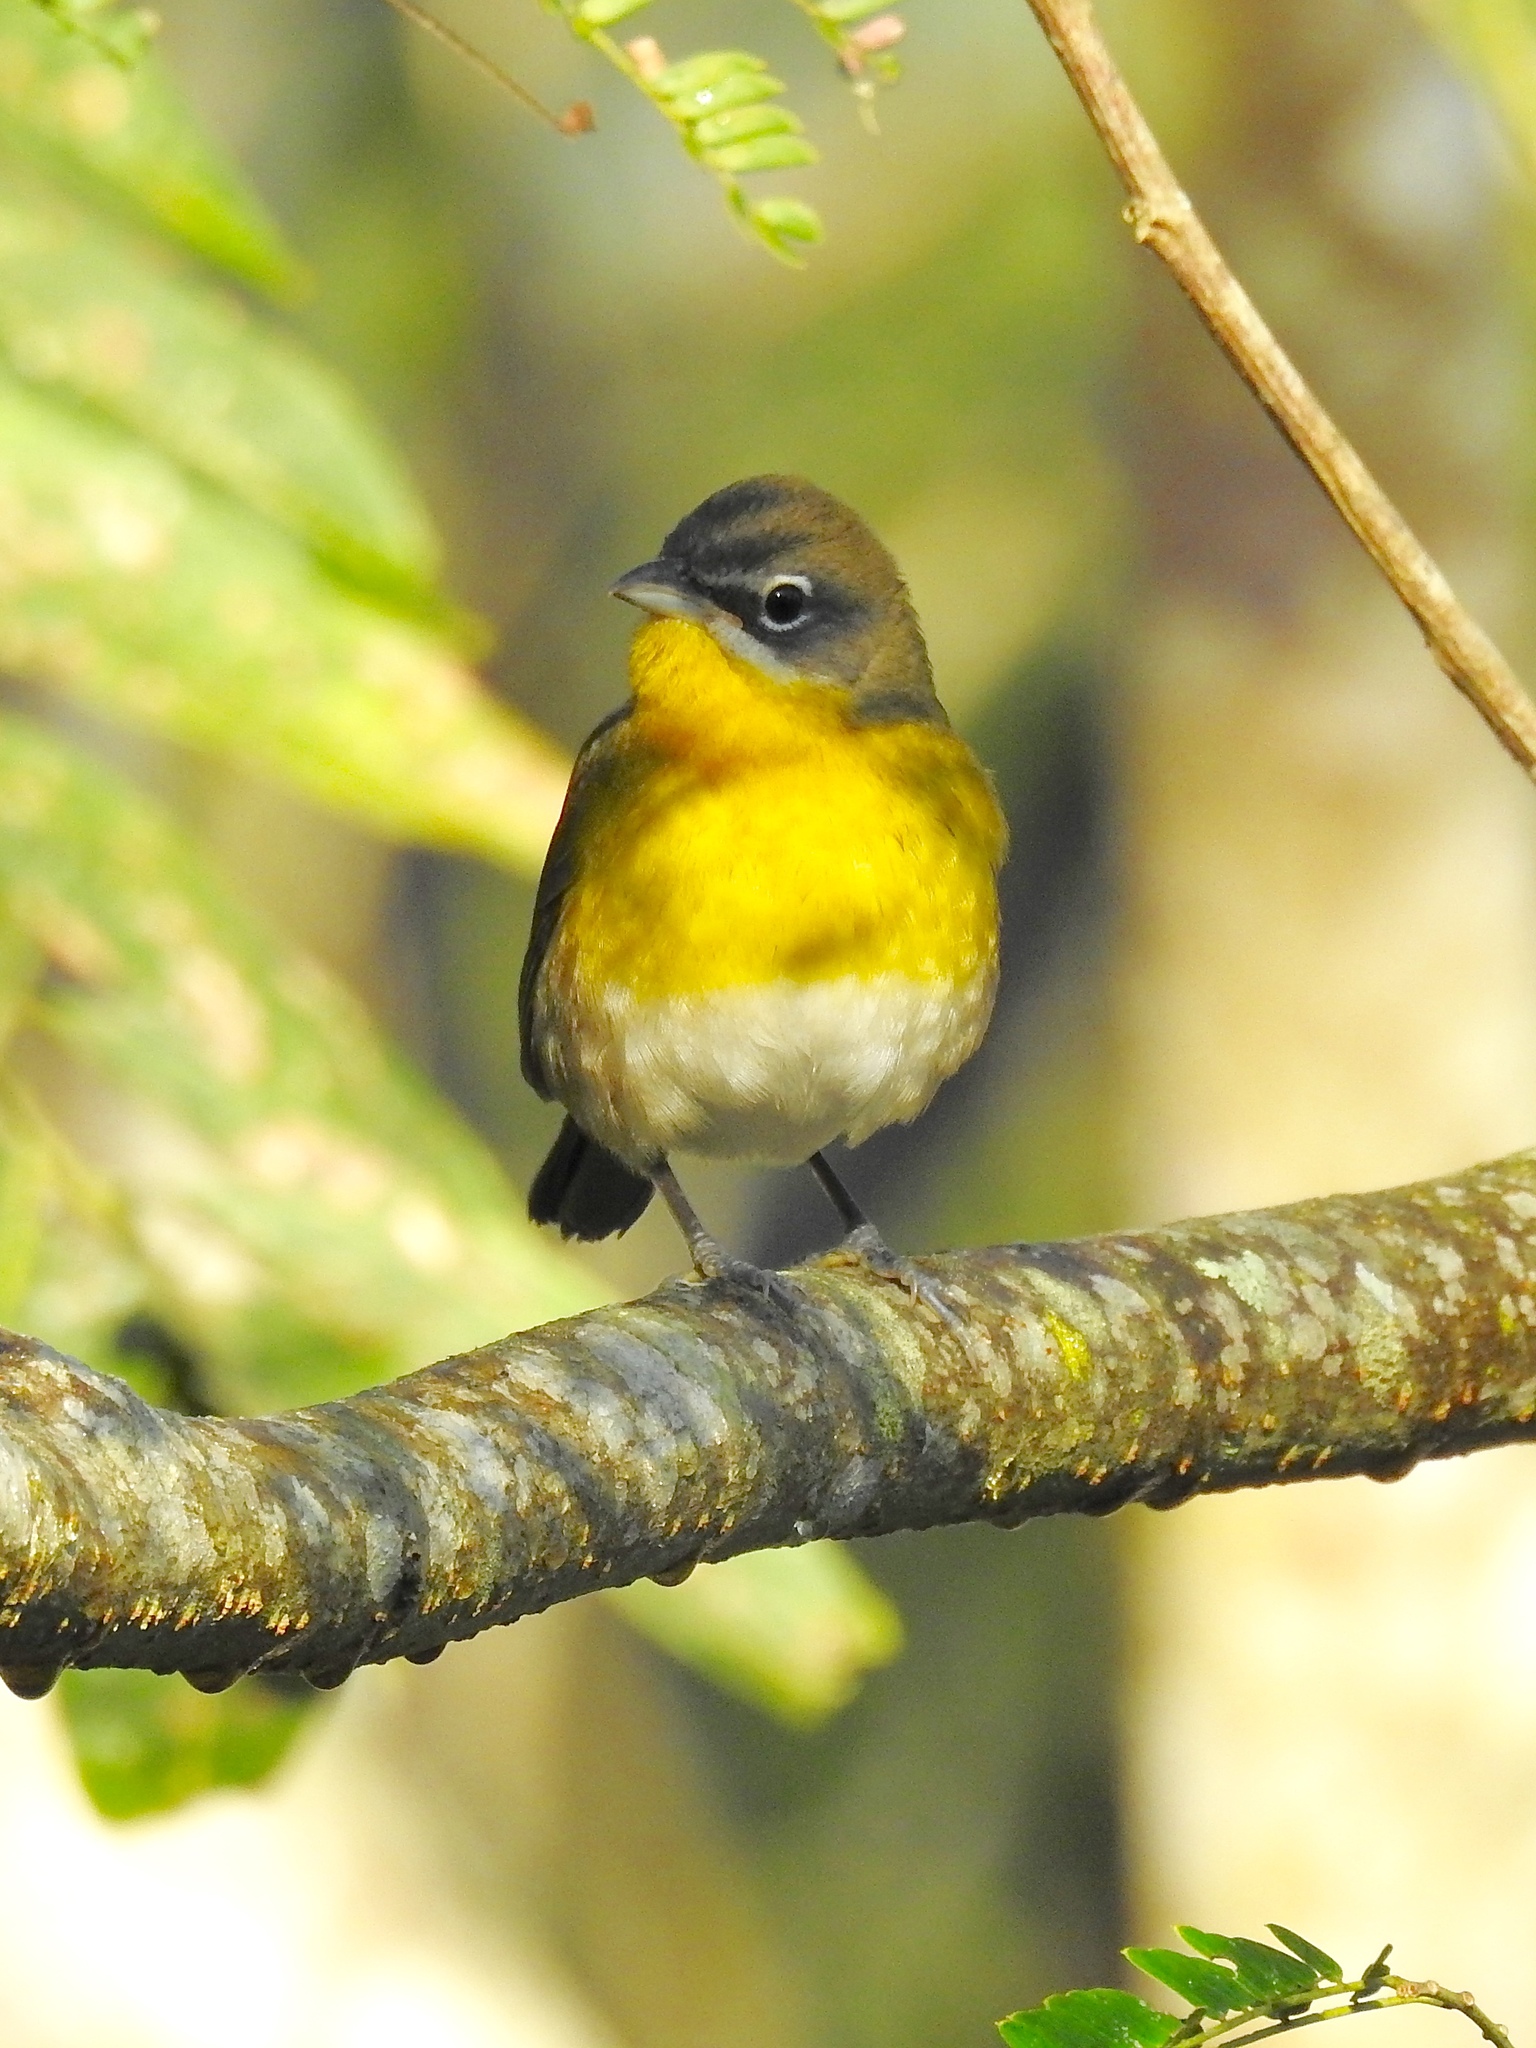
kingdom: Animalia
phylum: Chordata
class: Aves
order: Passeriformes
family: Parulidae
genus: Icteria
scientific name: Icteria virens
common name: Yellow-breasted chat
